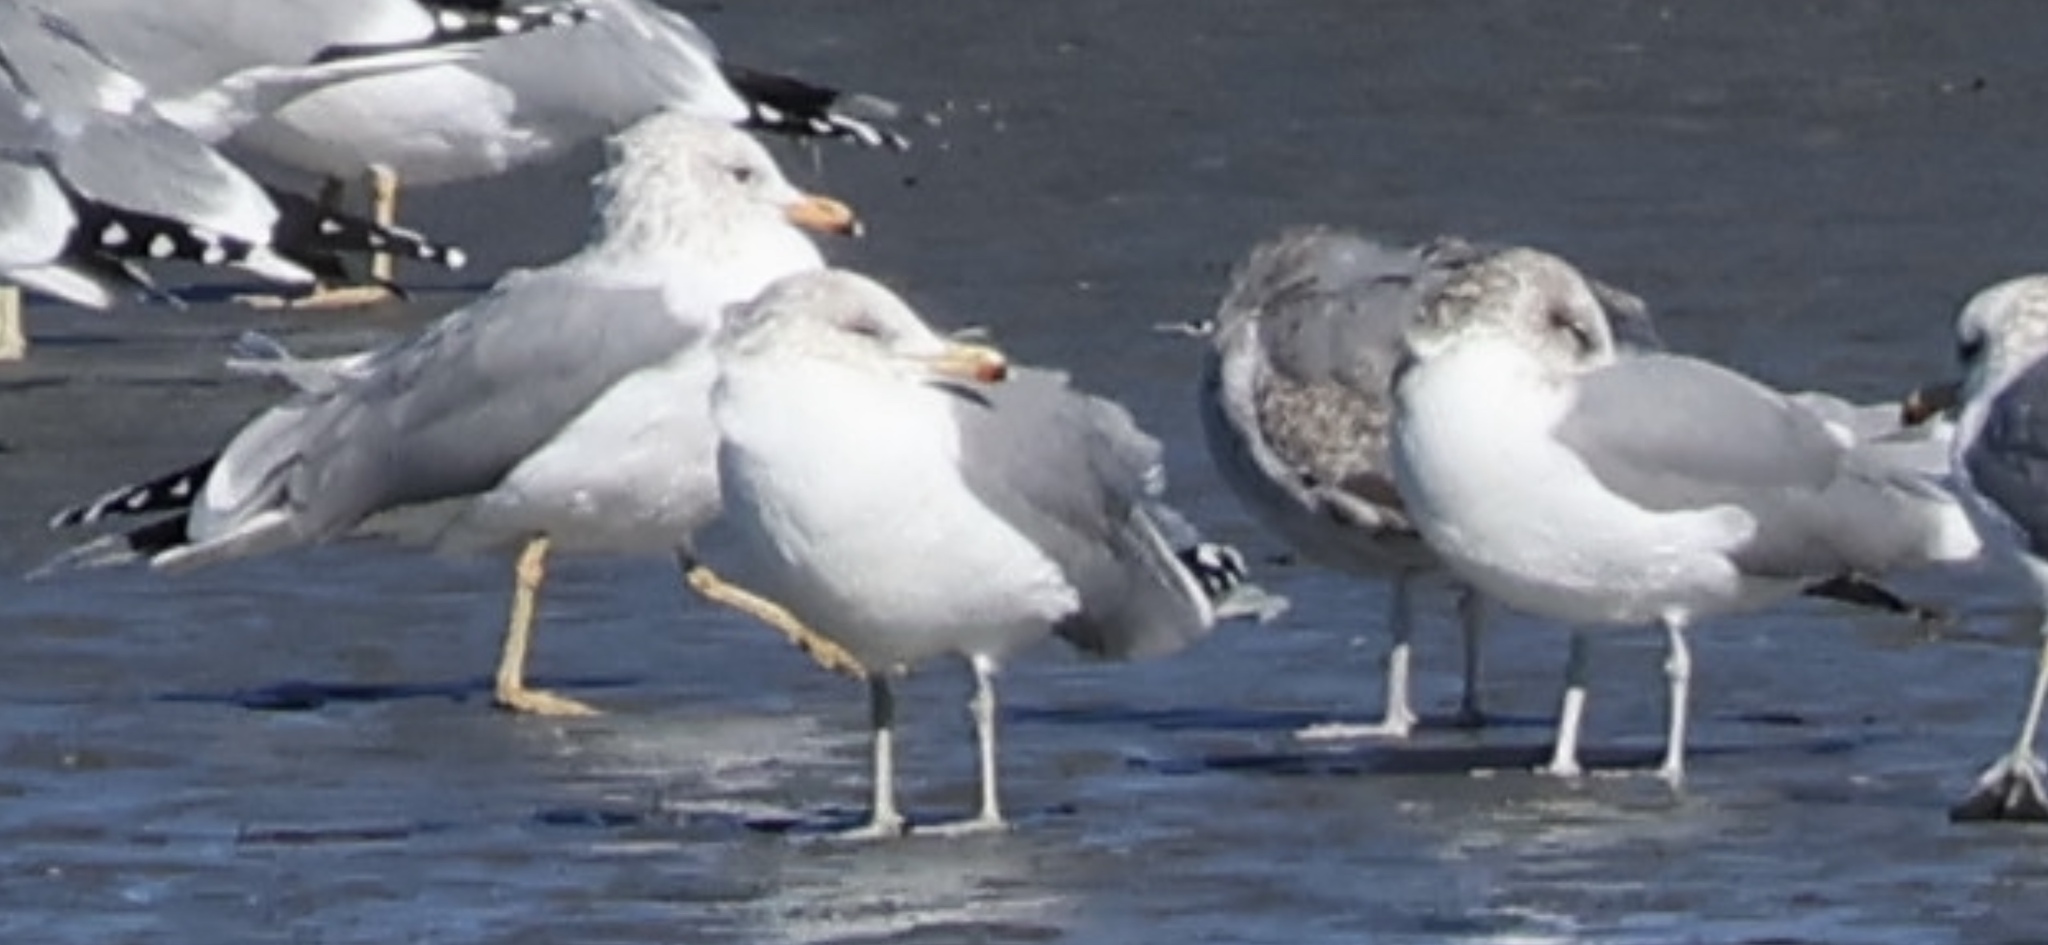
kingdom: Animalia
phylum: Chordata
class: Aves
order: Charadriiformes
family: Laridae
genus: Larus
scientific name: Larus californicus
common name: California gull
